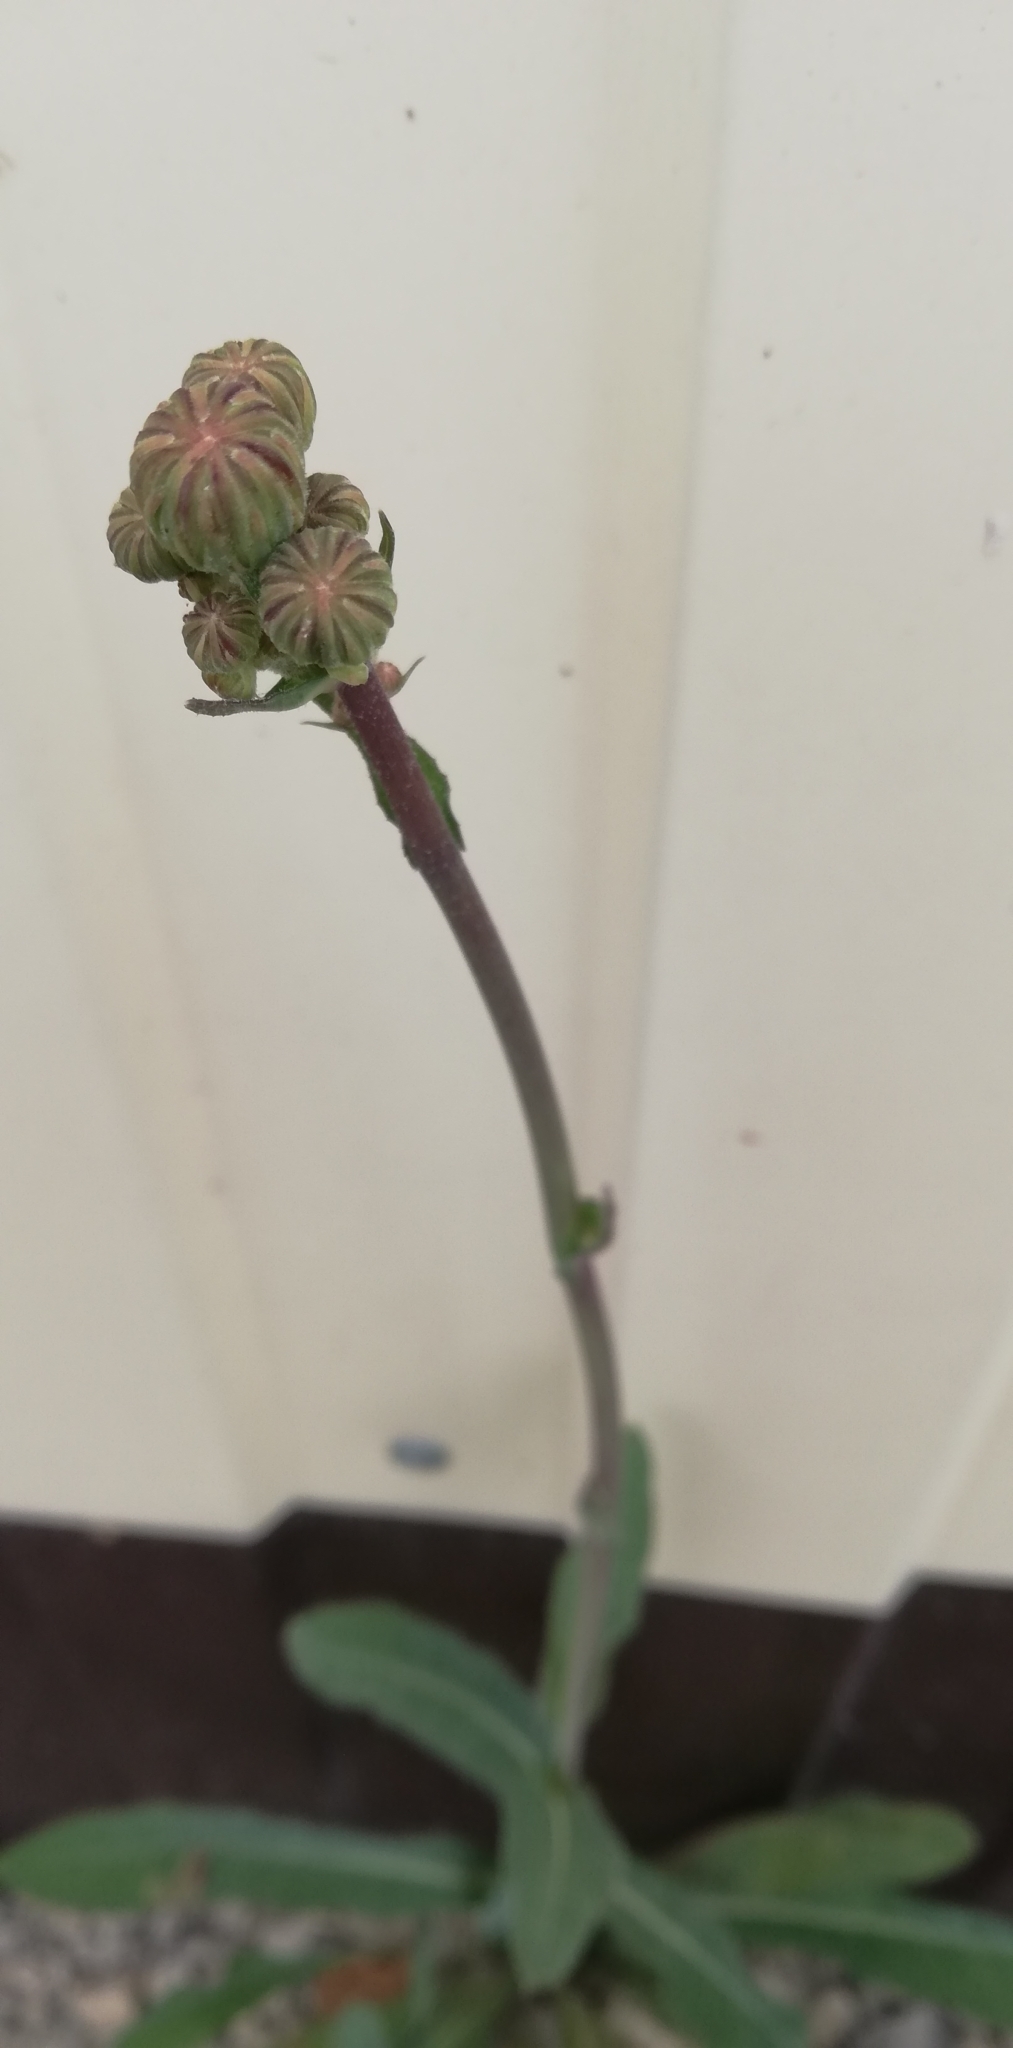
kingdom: Plantae
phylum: Tracheophyta
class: Magnoliopsida
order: Asterales
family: Asteraceae
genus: Sonchus
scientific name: Sonchus arvensis
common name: Perennial sow-thistle
